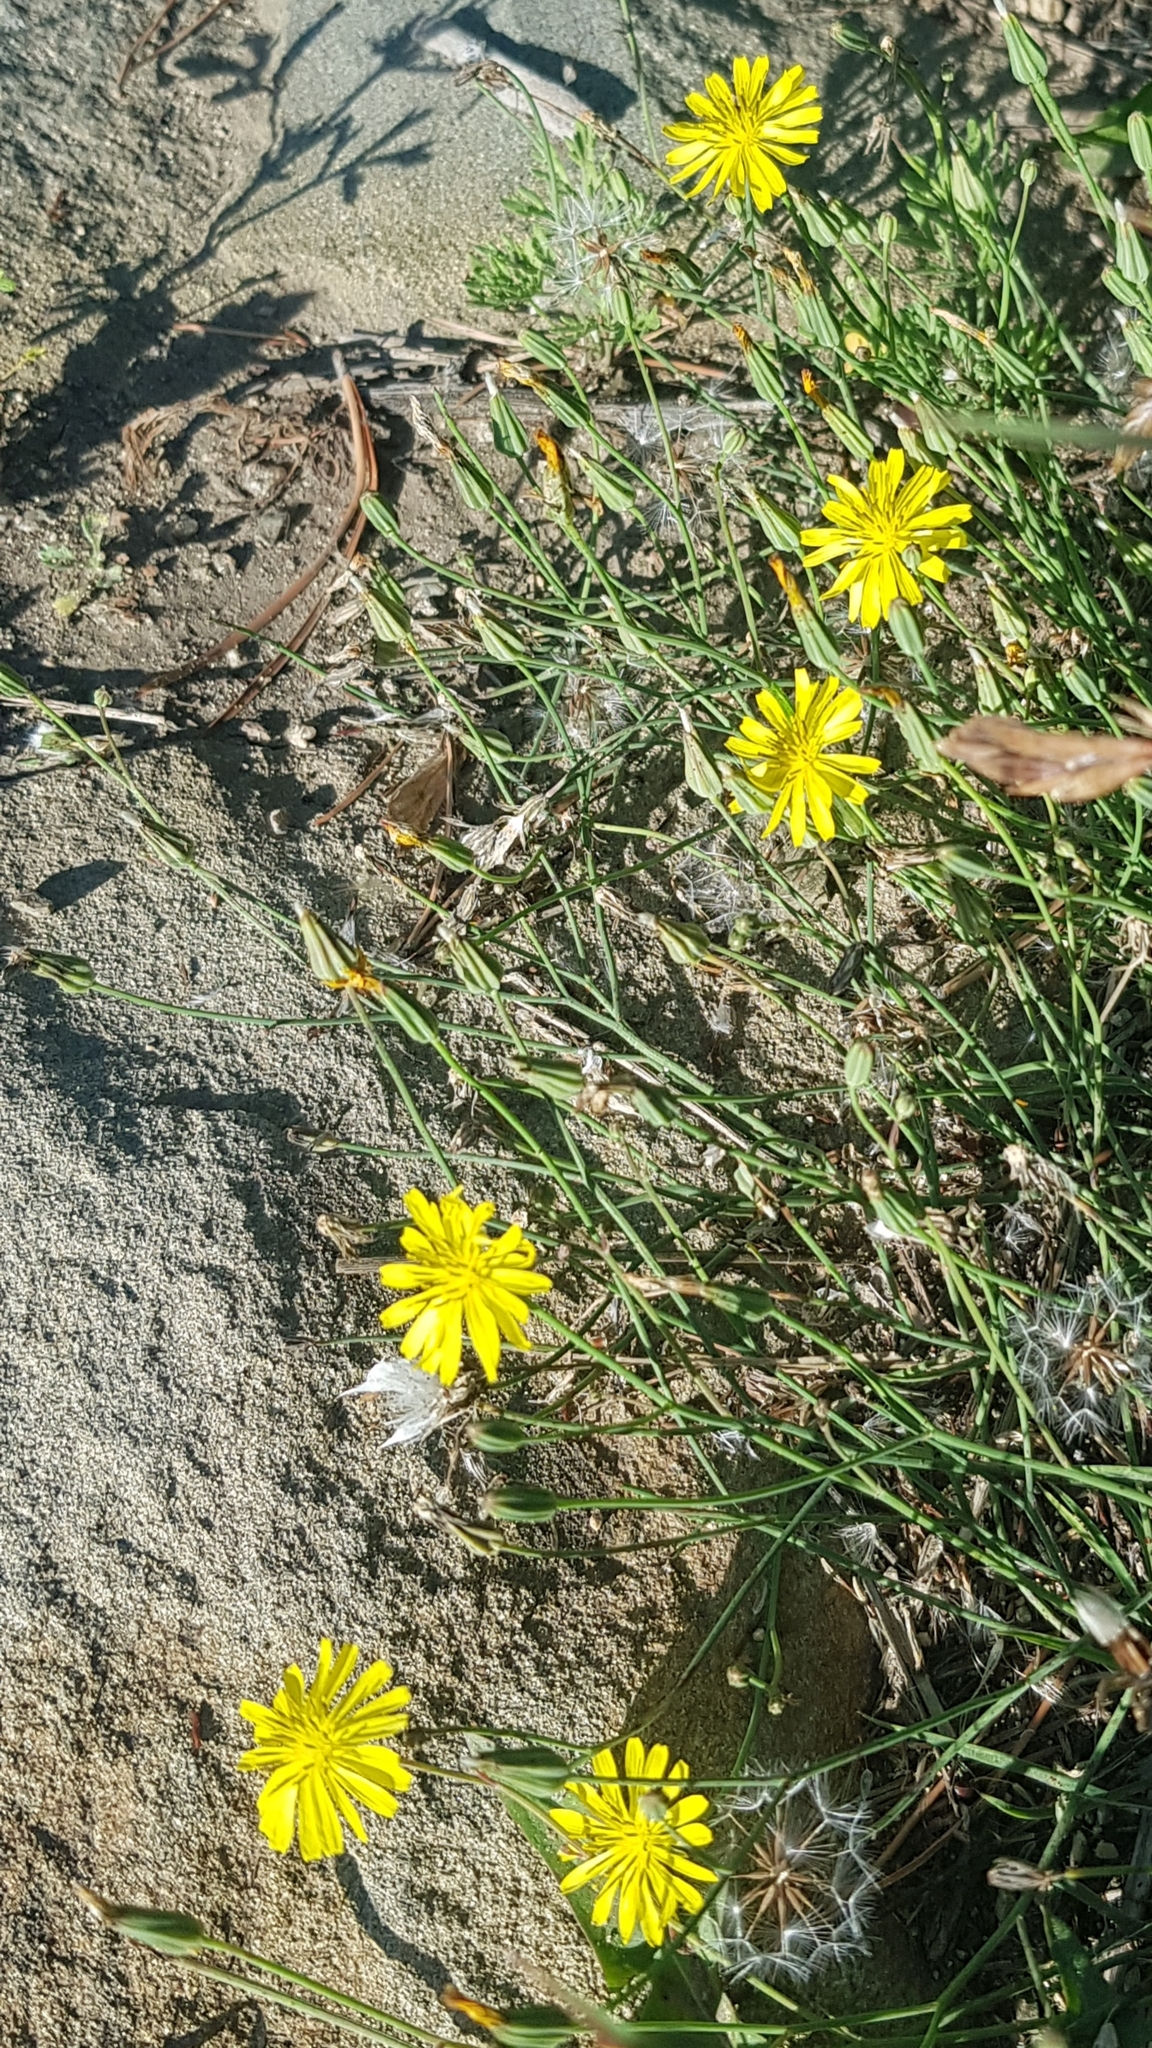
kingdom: Plantae
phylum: Tracheophyta
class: Magnoliopsida
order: Asterales
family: Asteraceae
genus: Crepidiastrum
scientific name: Crepidiastrum tenuifolium
